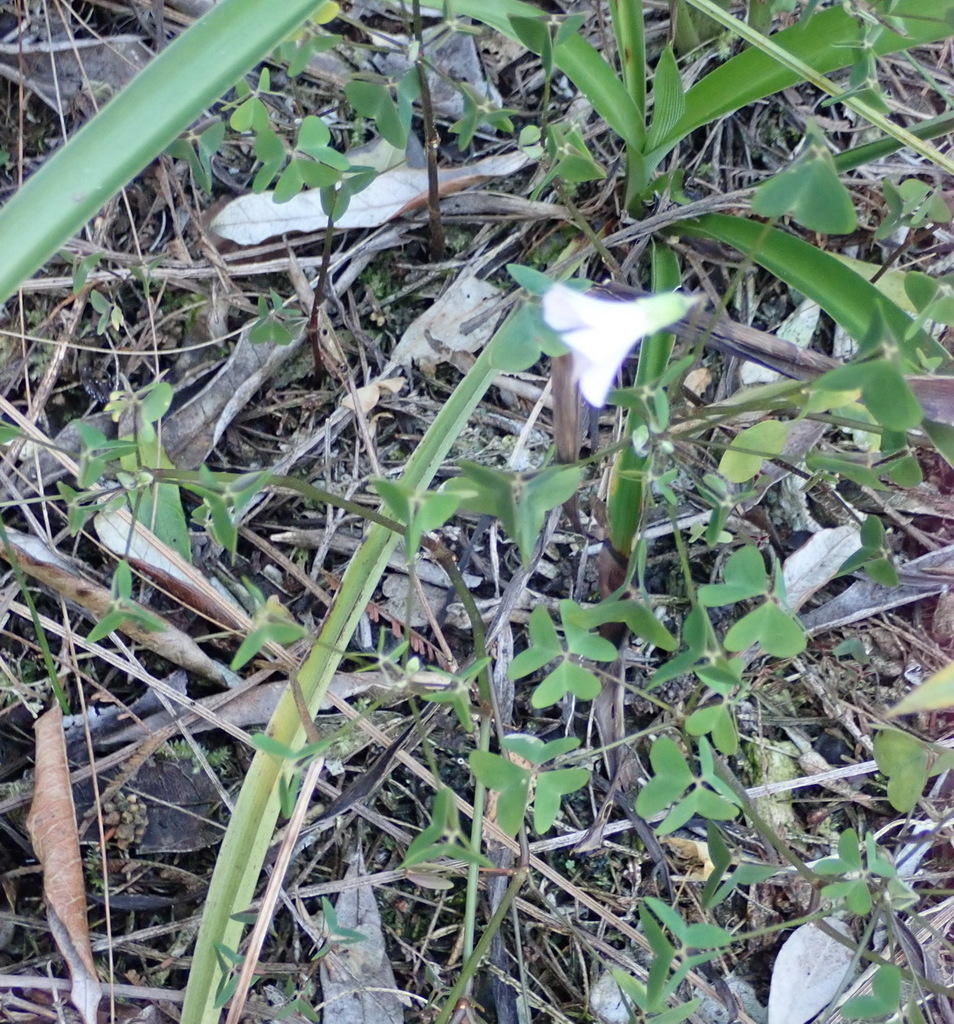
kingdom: Plantae
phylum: Tracheophyta
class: Magnoliopsida
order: Oxalidales
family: Oxalidaceae
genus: Oxalis
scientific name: Oxalis incarnata
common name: Pale pink-sorrel
